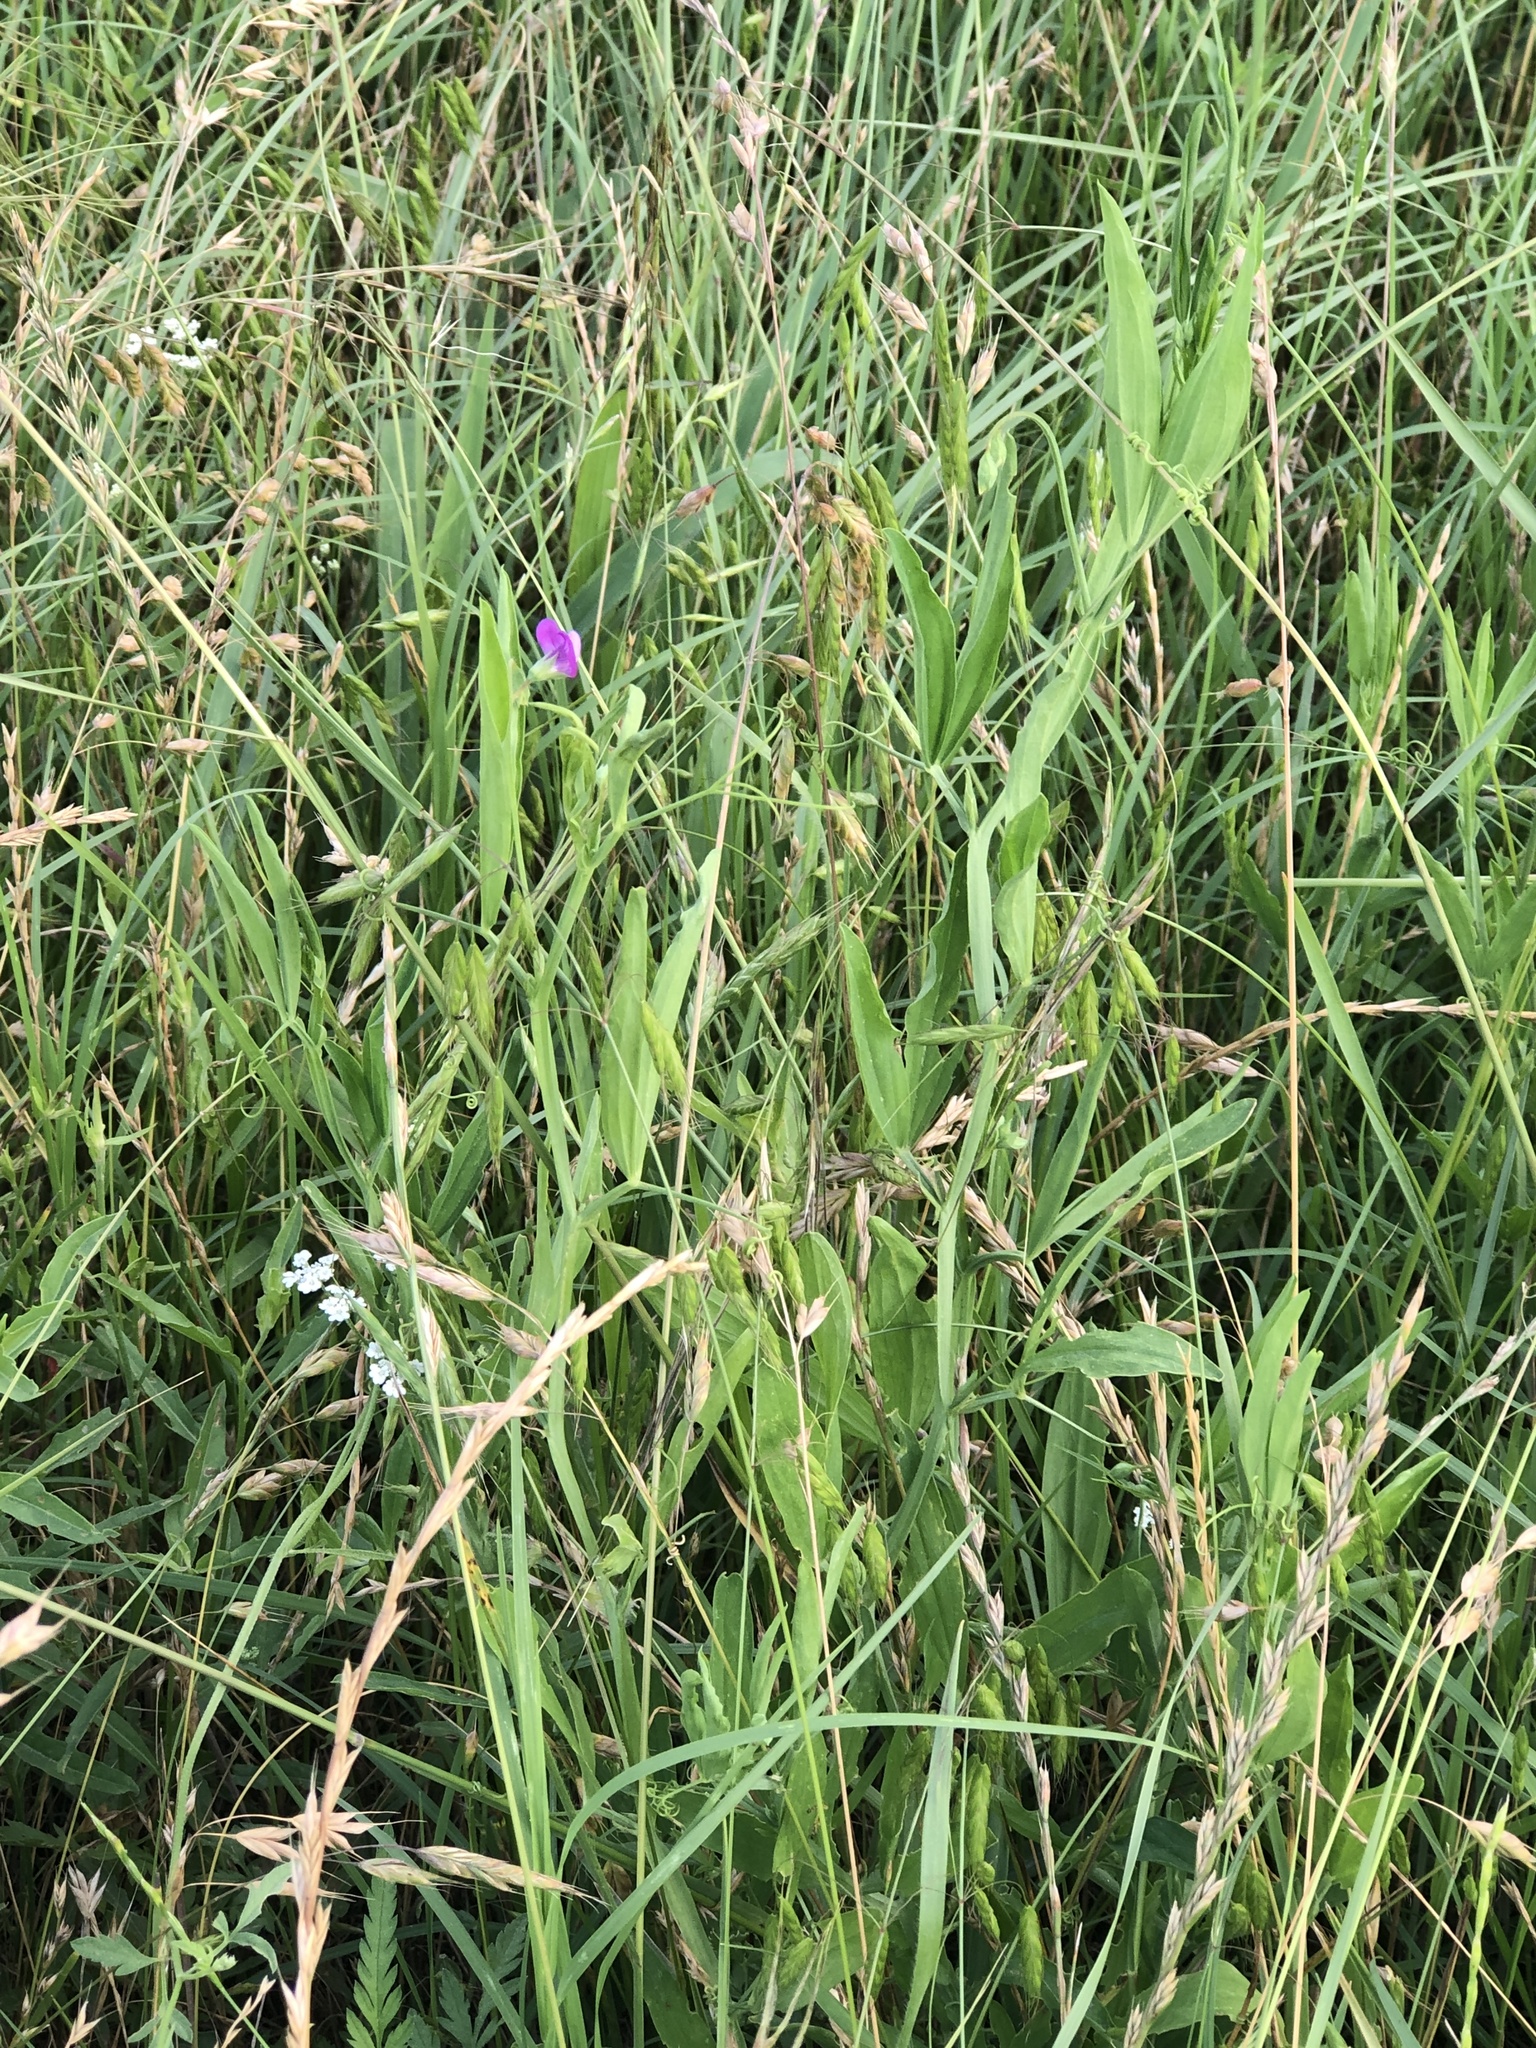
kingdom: Plantae
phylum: Tracheophyta
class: Magnoliopsida
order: Fabales
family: Fabaceae
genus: Lathyrus
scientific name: Lathyrus hirsutus
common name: Hairy vetchling
